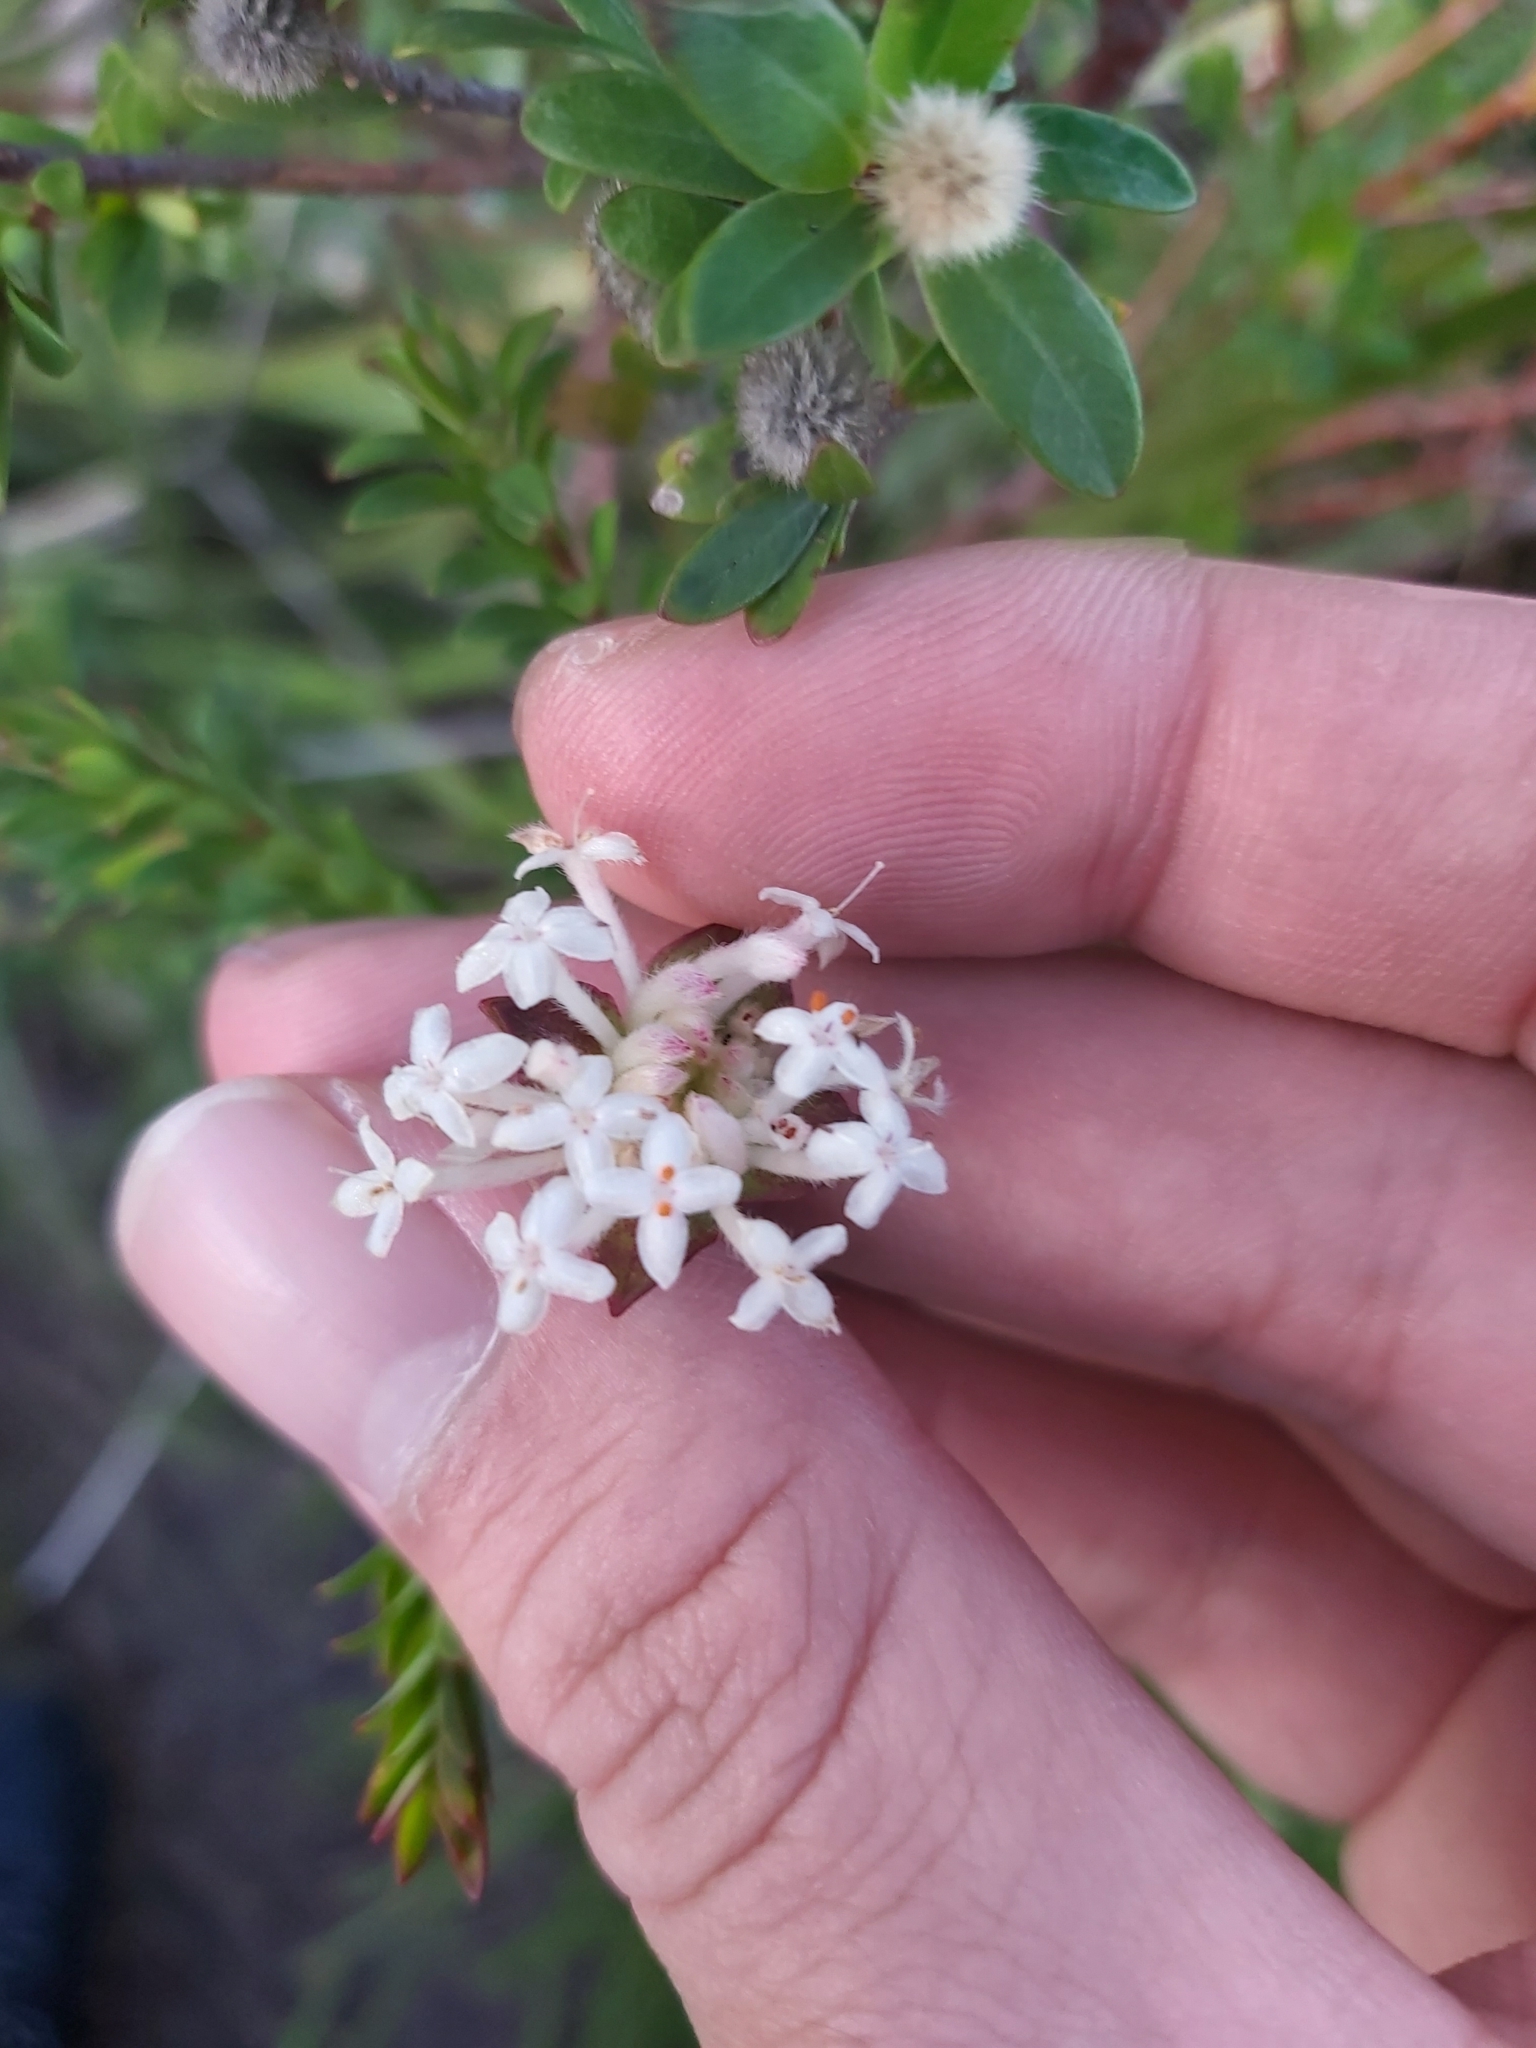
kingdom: Plantae
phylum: Tracheophyta
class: Magnoliopsida
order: Malvales
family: Thymelaeaceae
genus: Pimelea
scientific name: Pimelea linifolia
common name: Queen-of-the-bush
